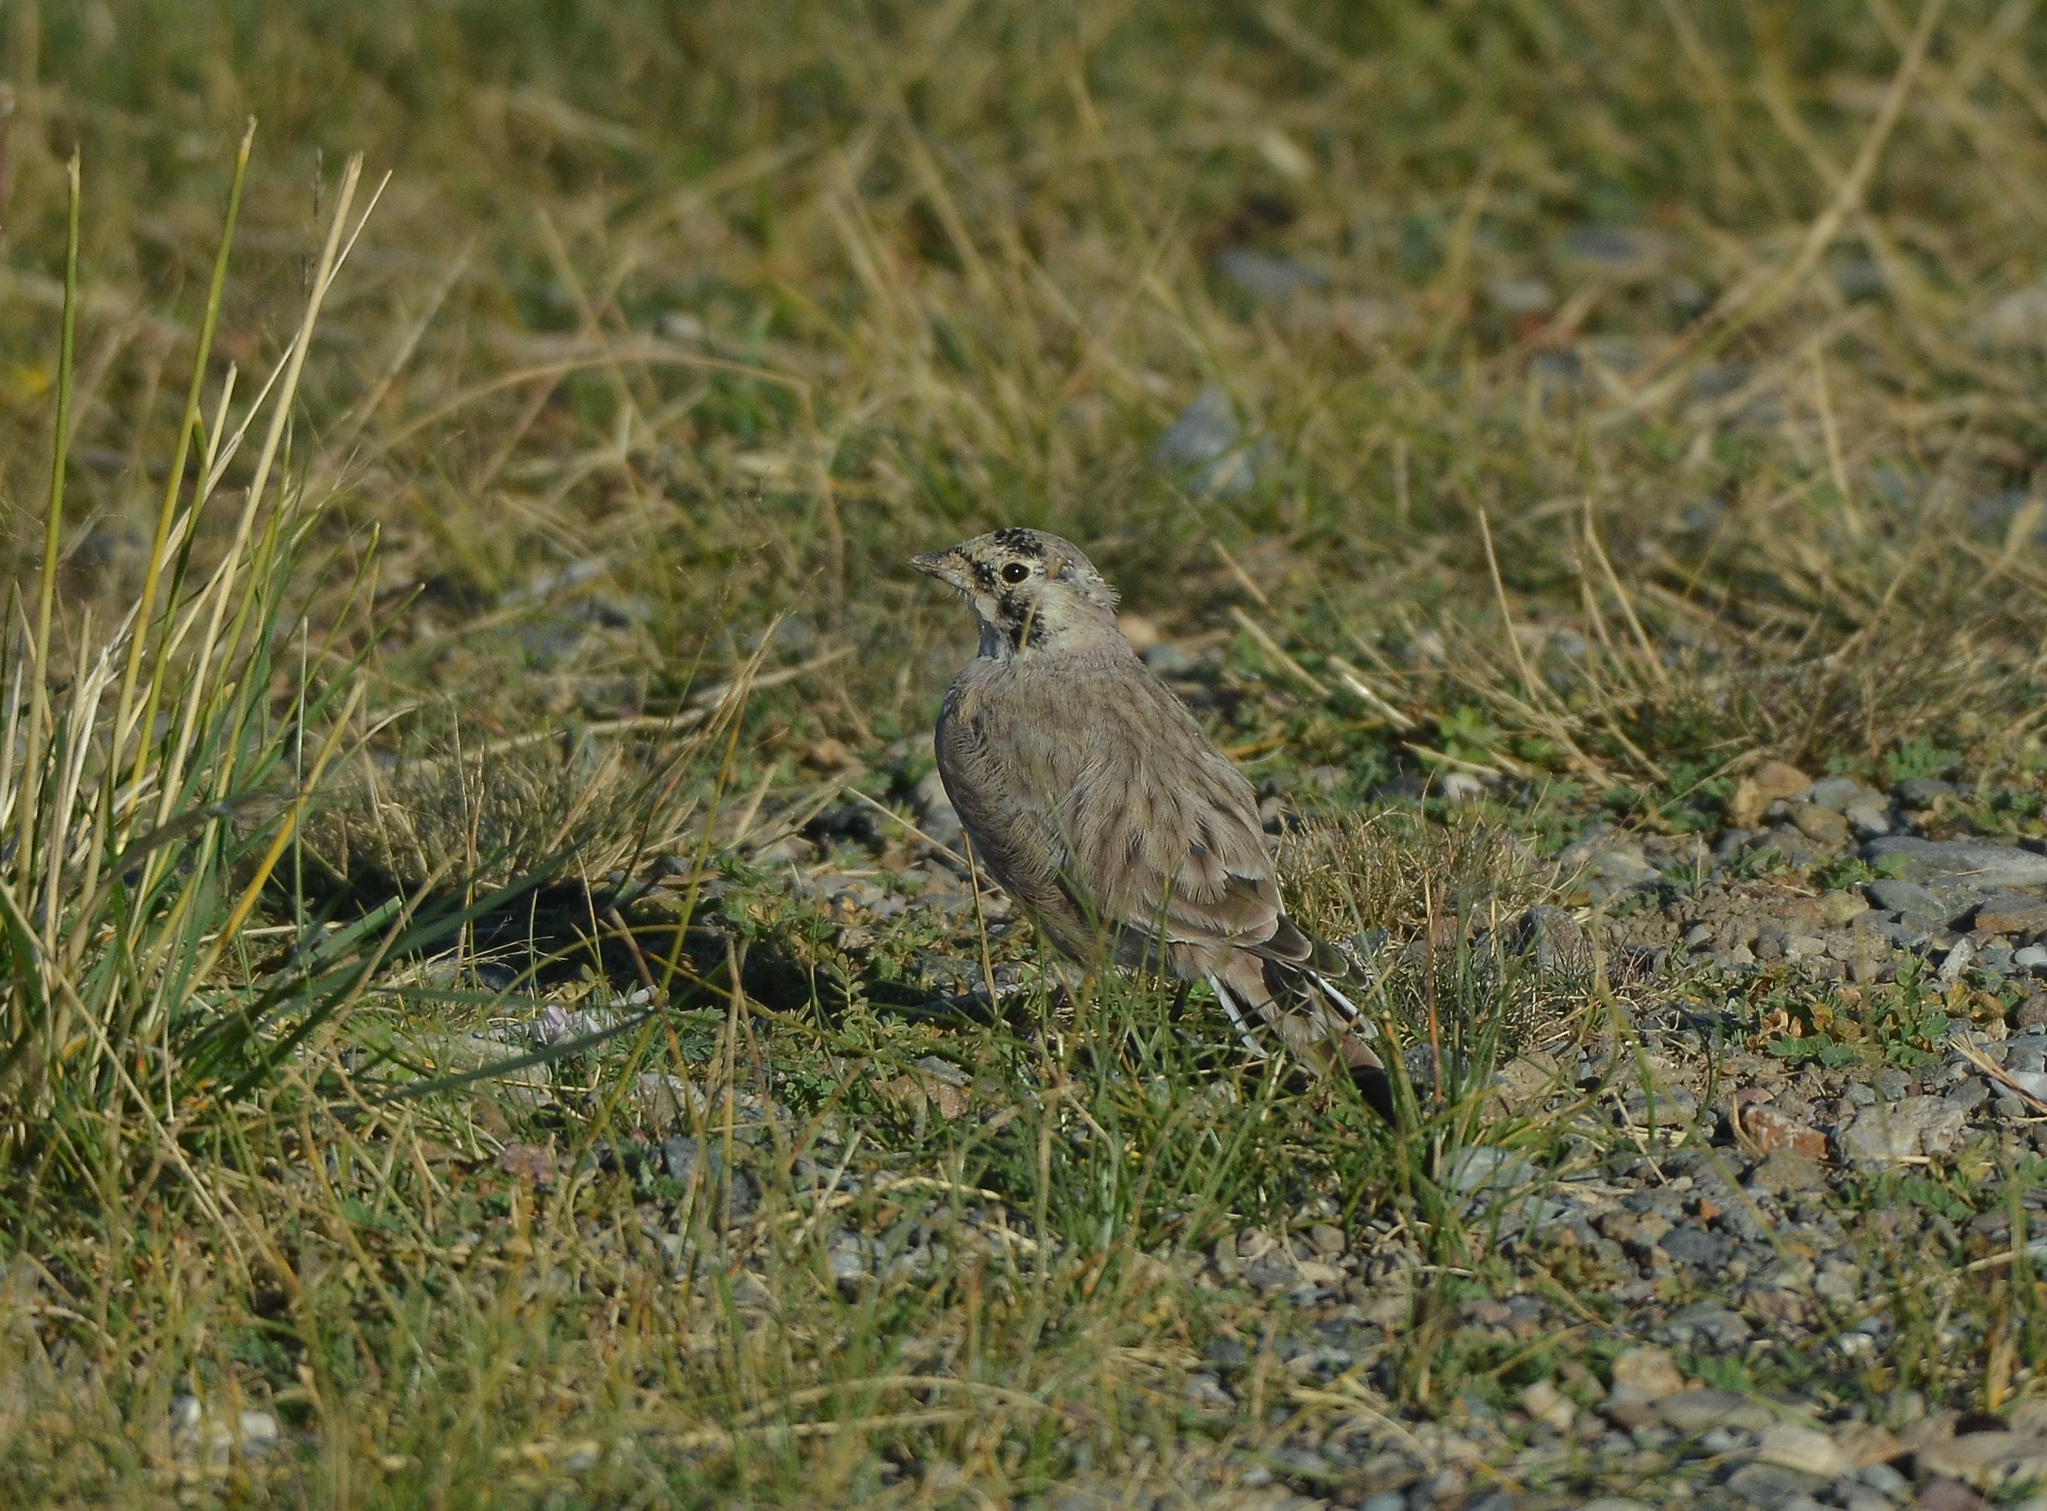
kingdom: Animalia
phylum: Chordata
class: Aves
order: Passeriformes
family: Alaudidae
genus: Eremophila
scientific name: Eremophila alpestris
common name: Horned lark
